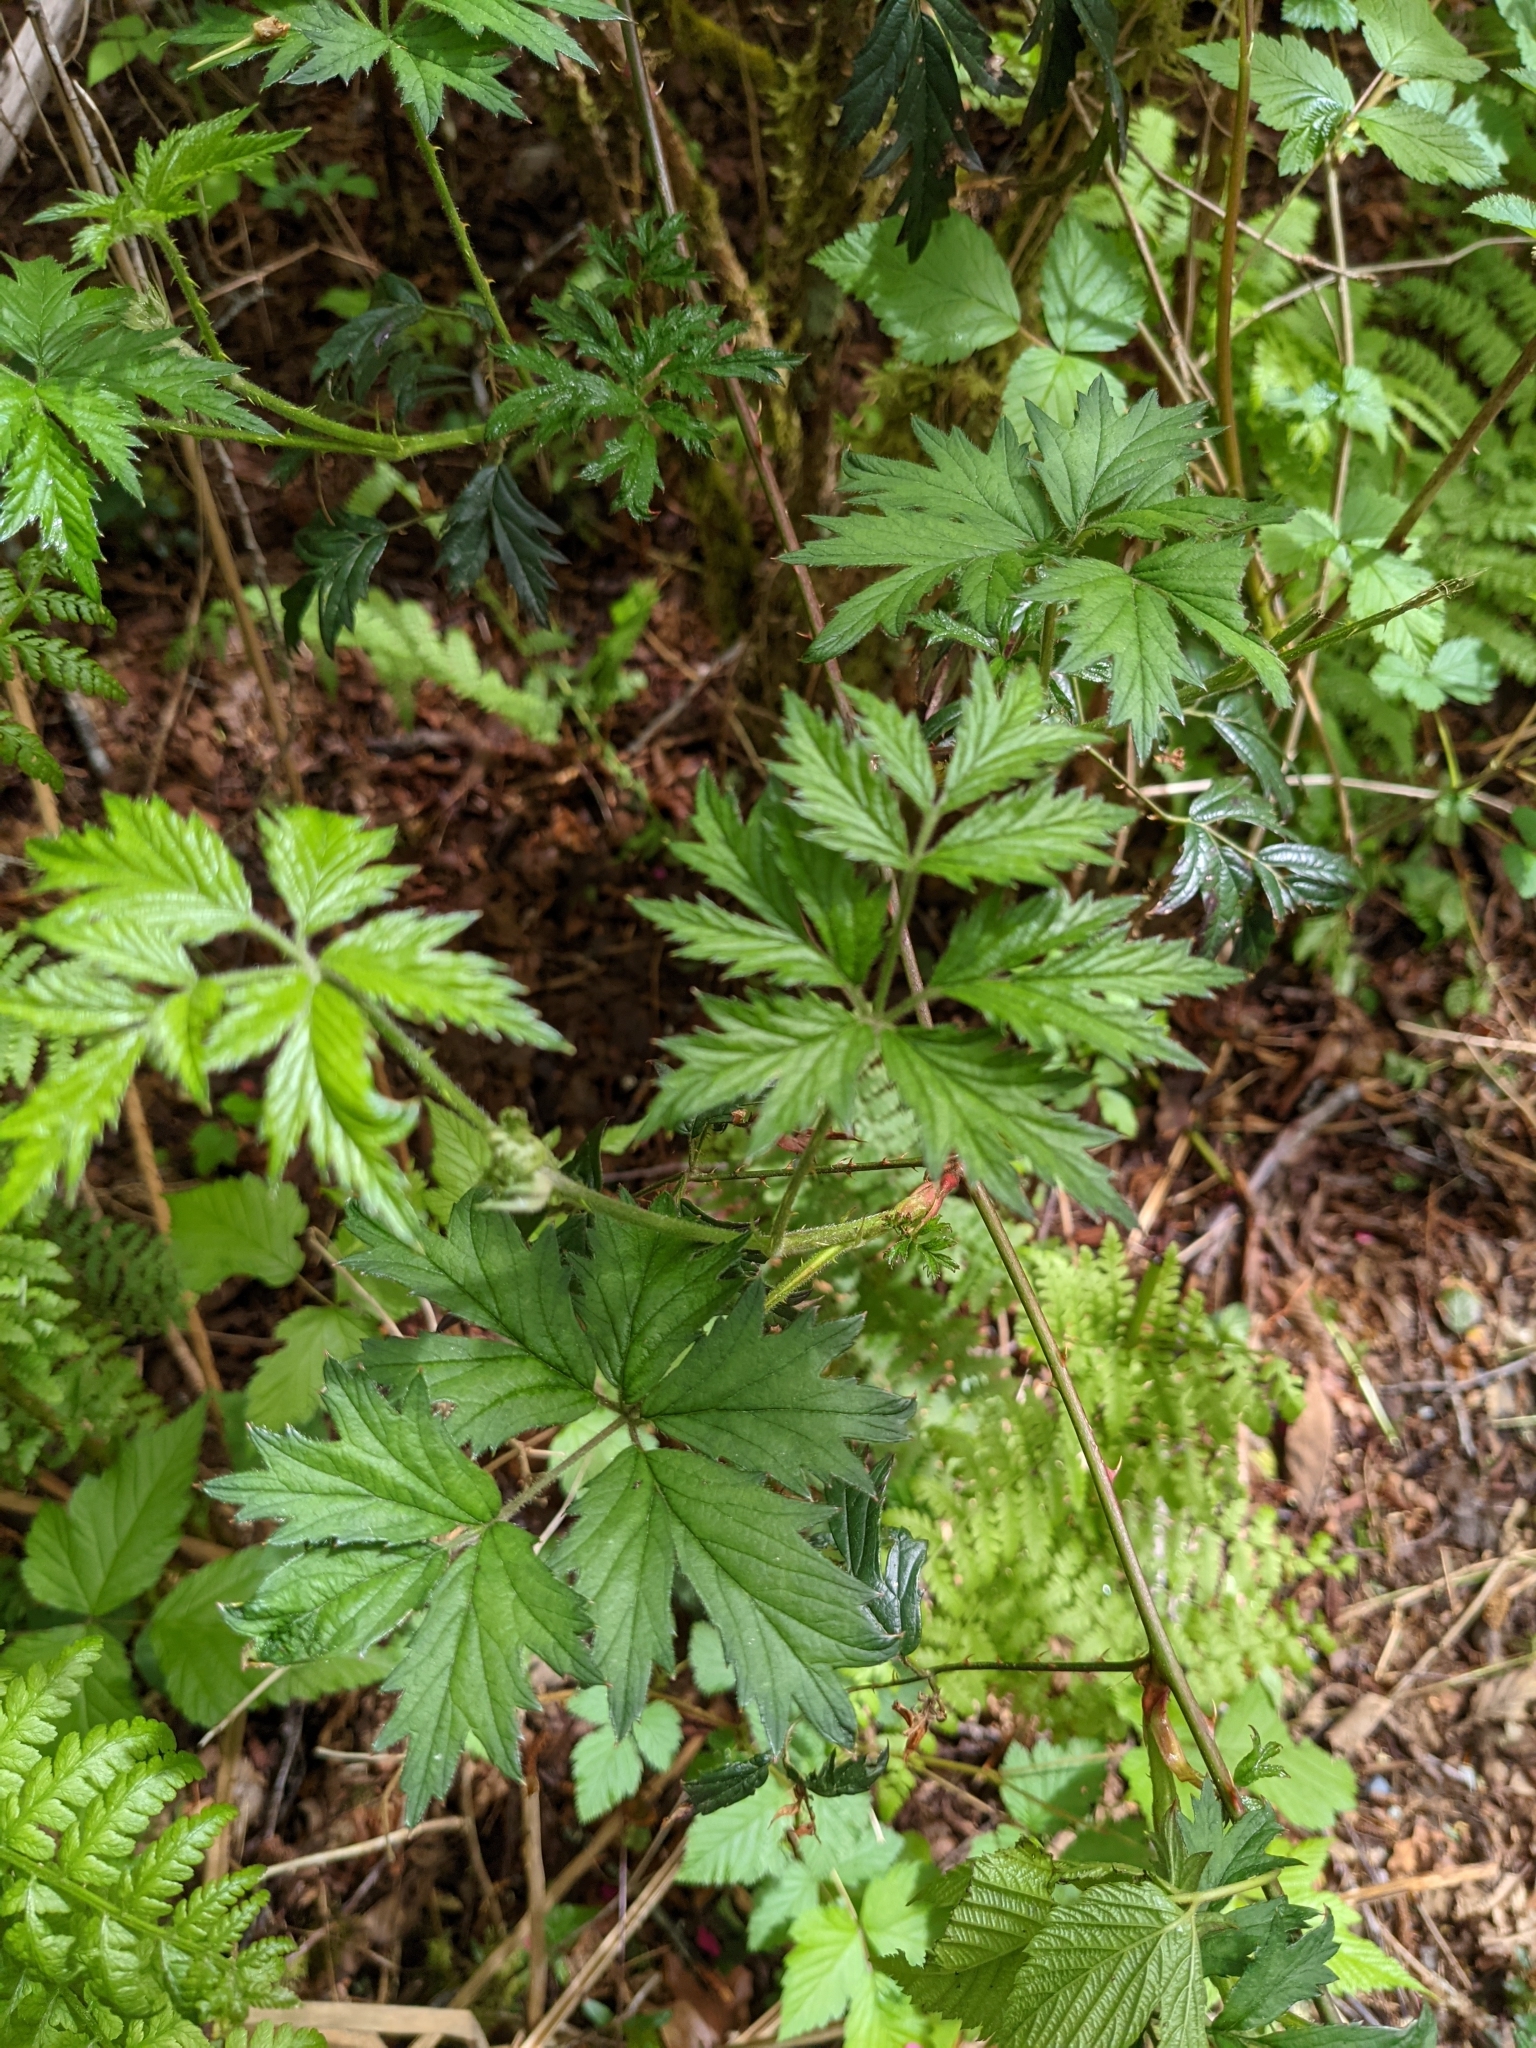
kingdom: Plantae
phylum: Tracheophyta
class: Magnoliopsida
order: Rosales
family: Rosaceae
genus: Rubus
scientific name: Rubus laciniatus
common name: Evergreen blackberry
